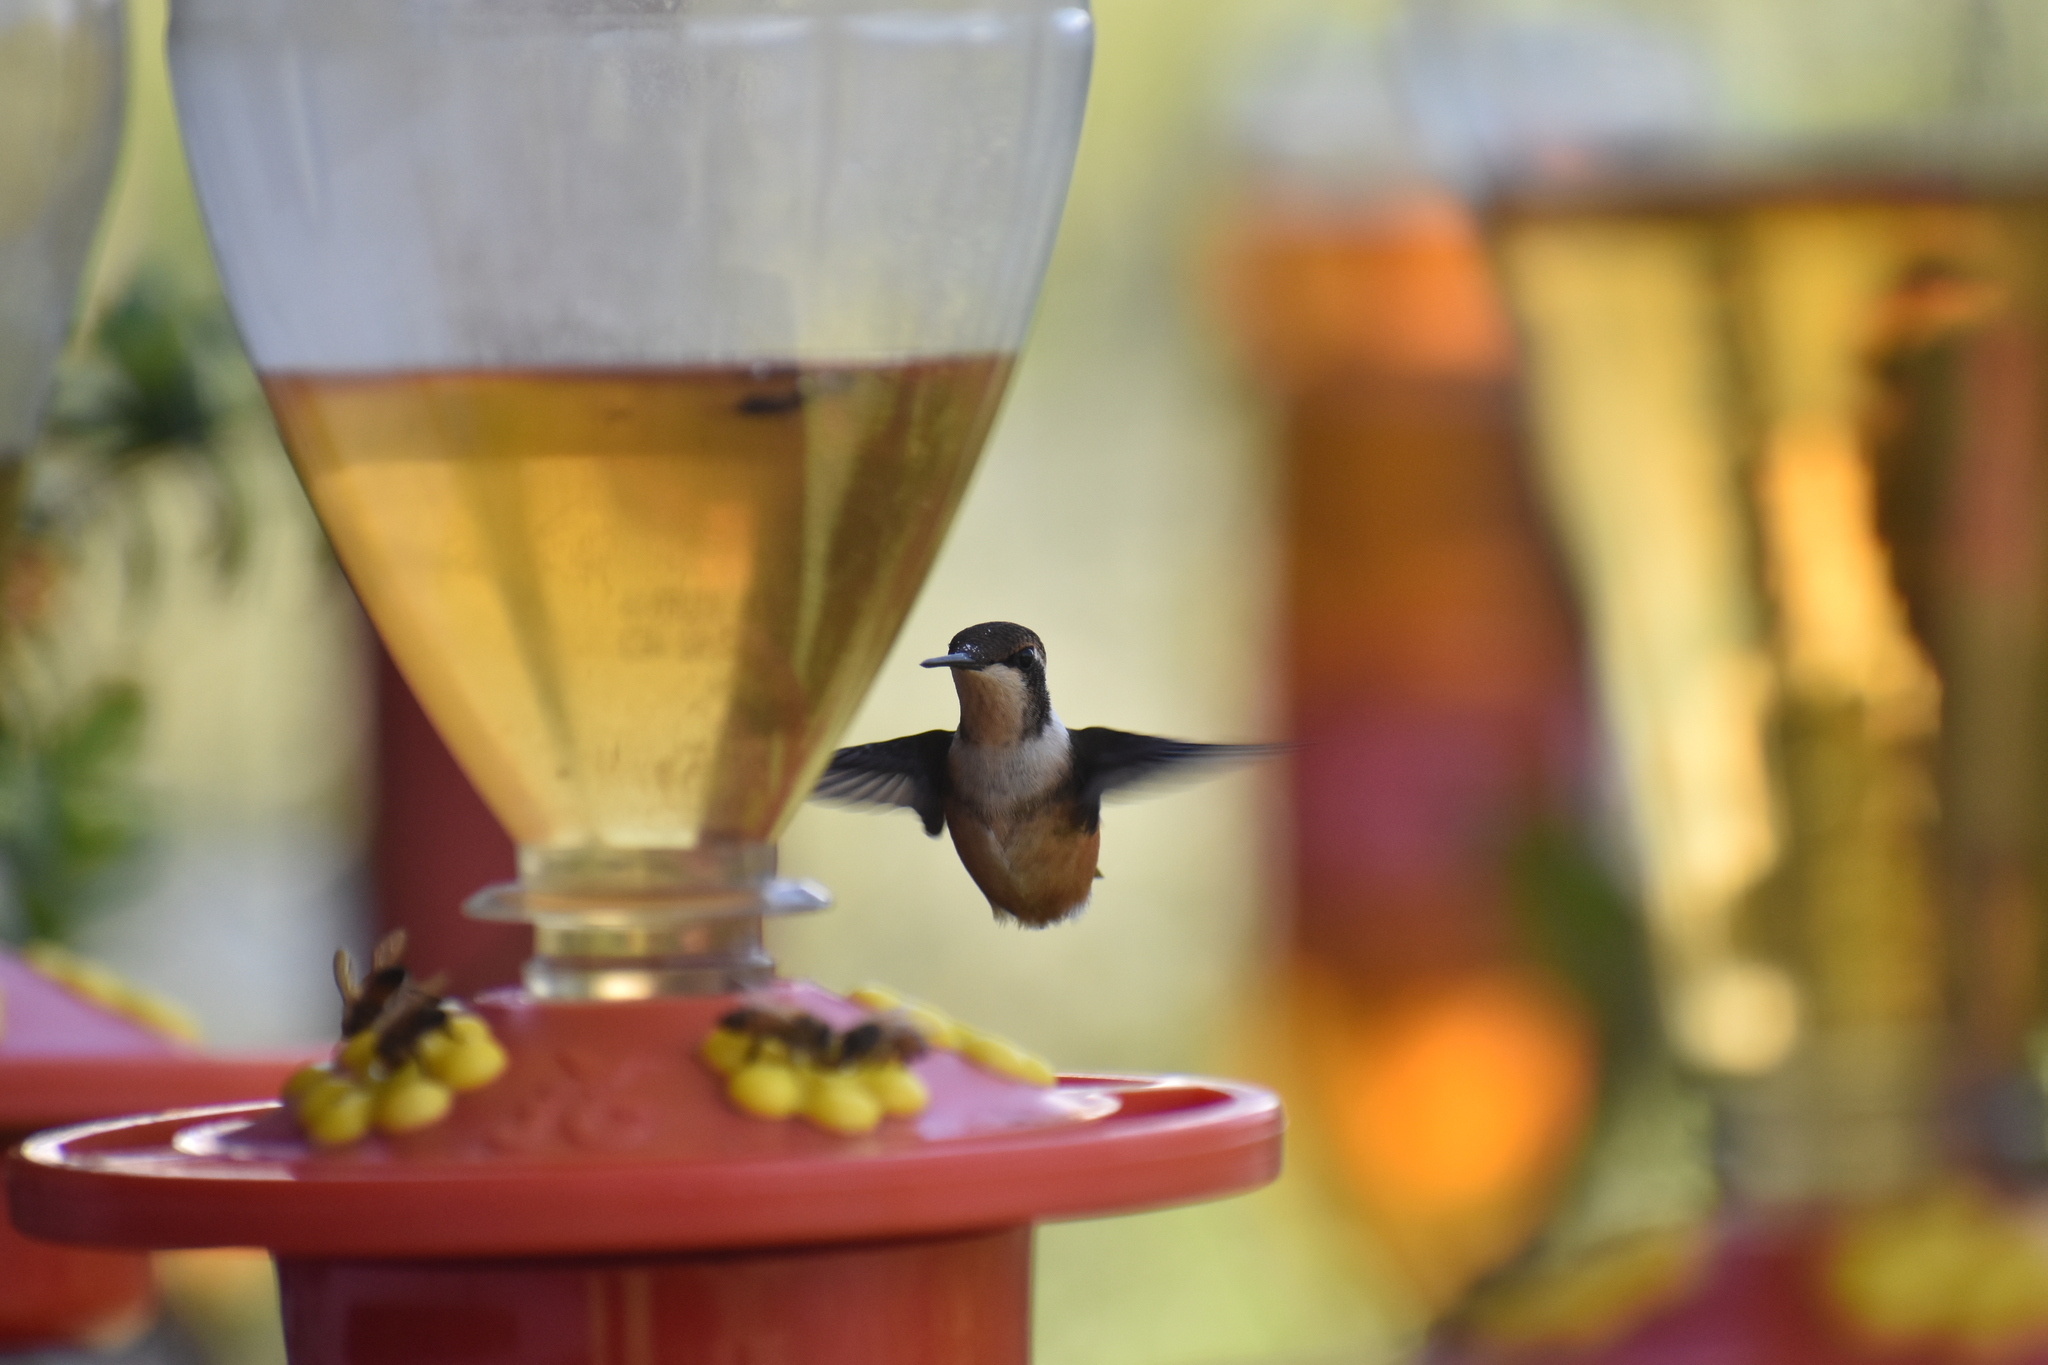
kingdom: Animalia
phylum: Chordata
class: Aves
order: Apodiformes
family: Trochilidae
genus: Chaetocercus
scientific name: Chaetocercus mulsant
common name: White-bellied woodstar
